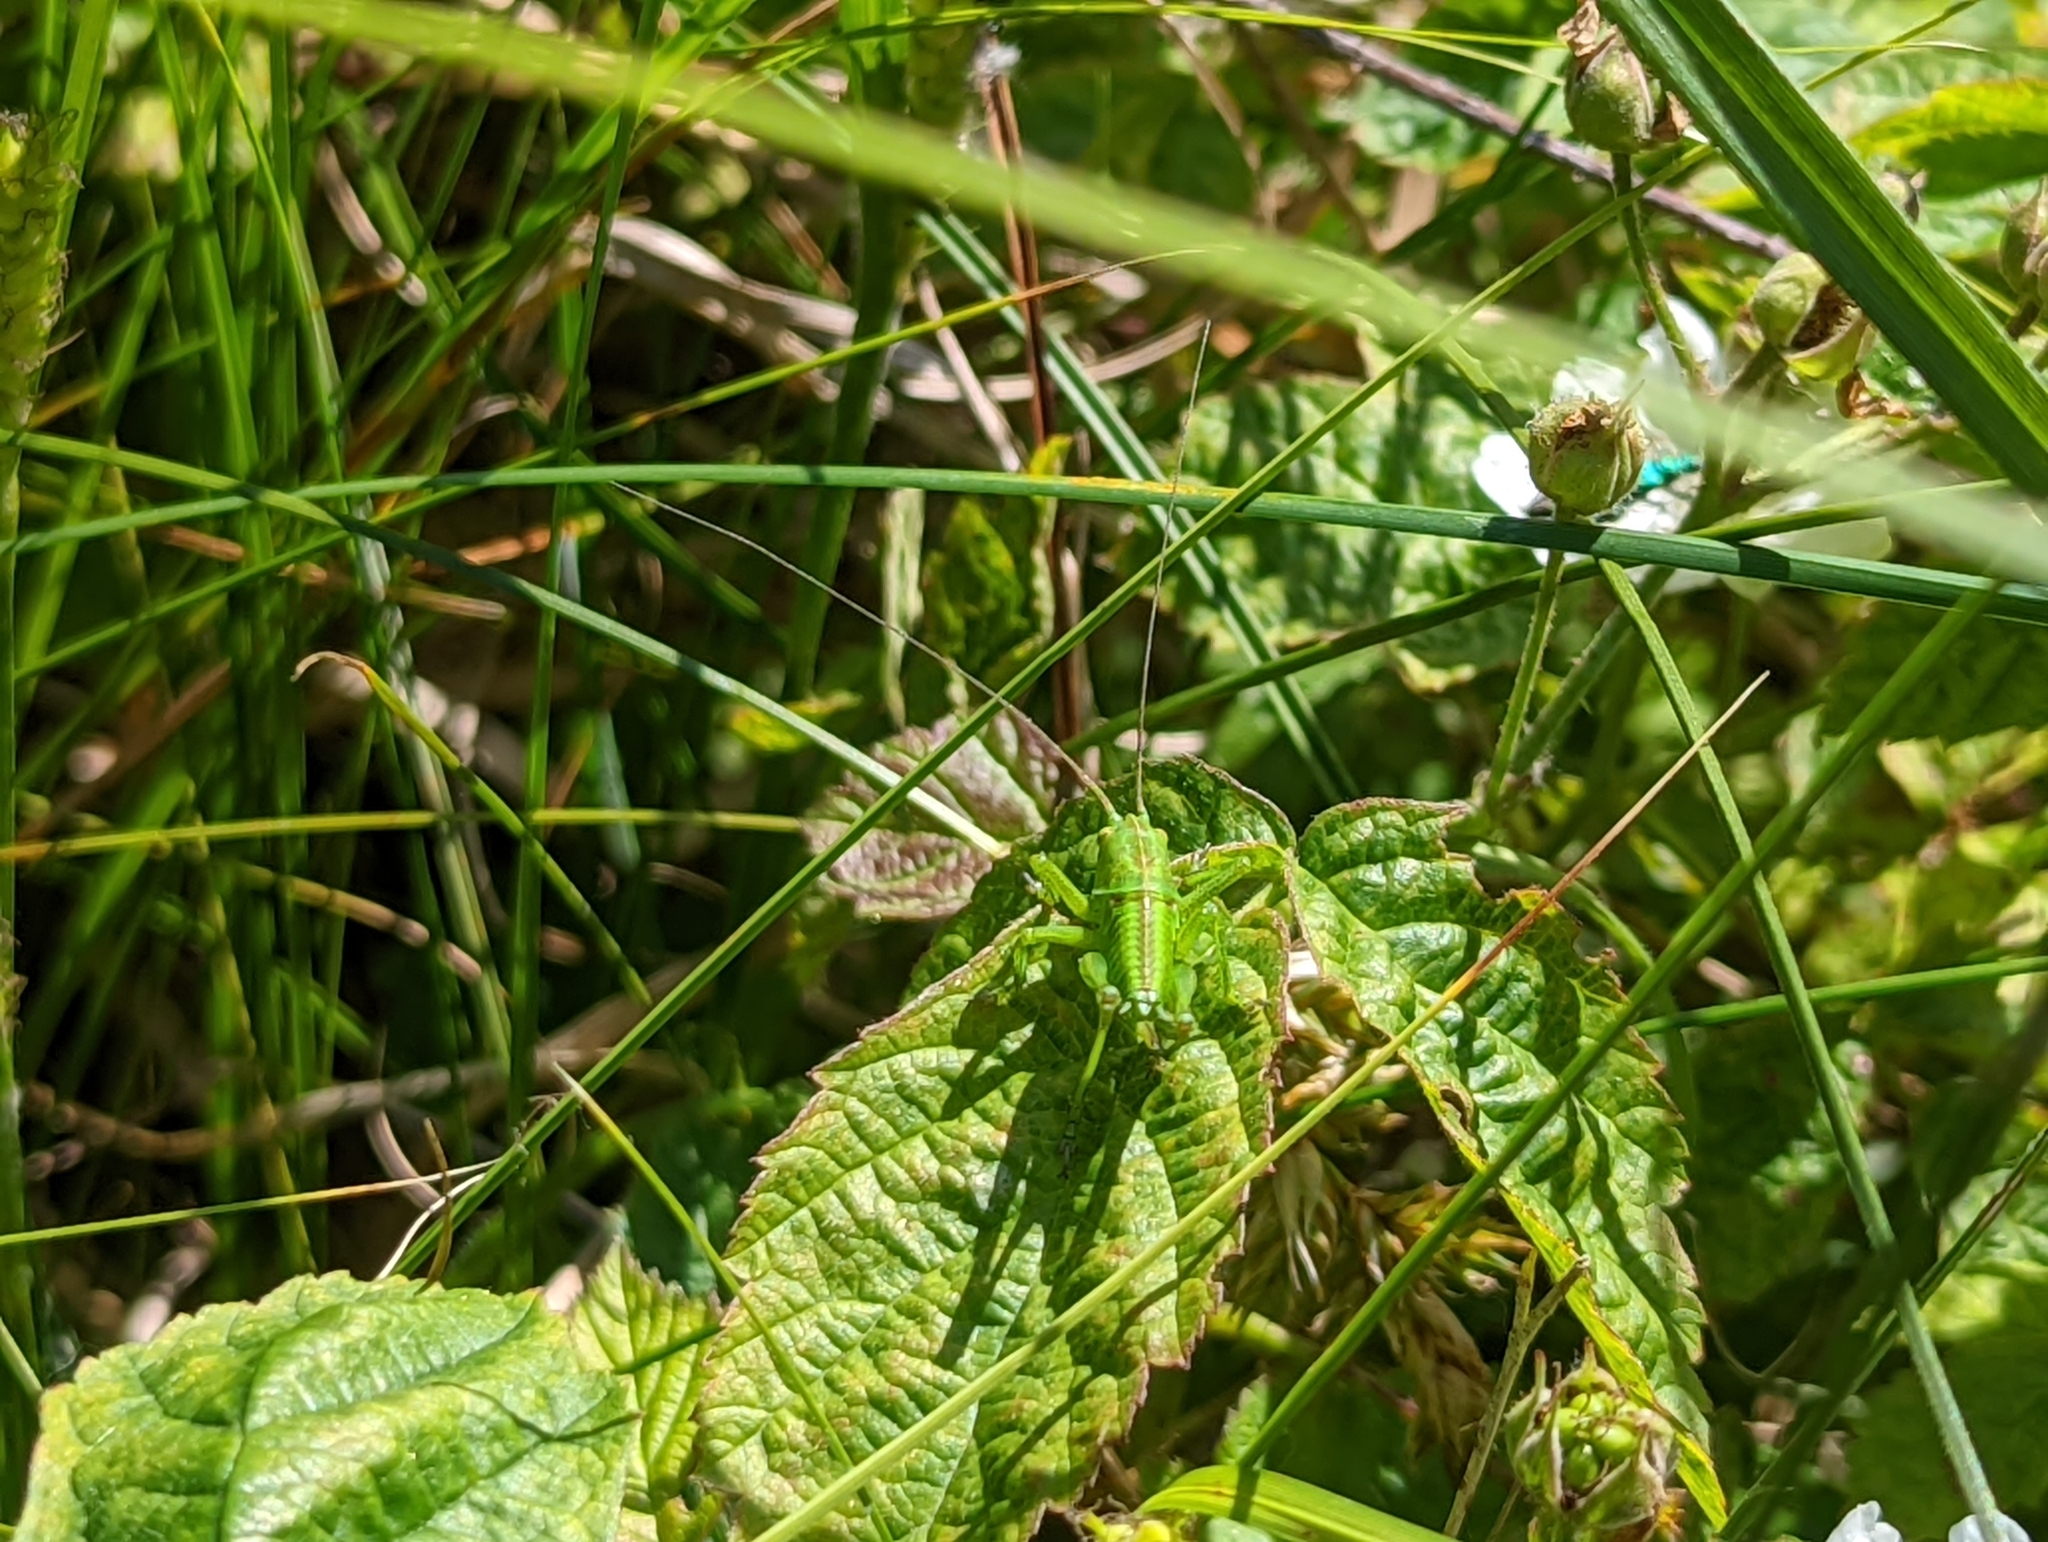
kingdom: Animalia
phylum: Arthropoda
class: Insecta
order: Orthoptera
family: Tettigoniidae
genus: Tettigonia
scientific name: Tettigonia viridissima
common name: Great green bush-cricket
